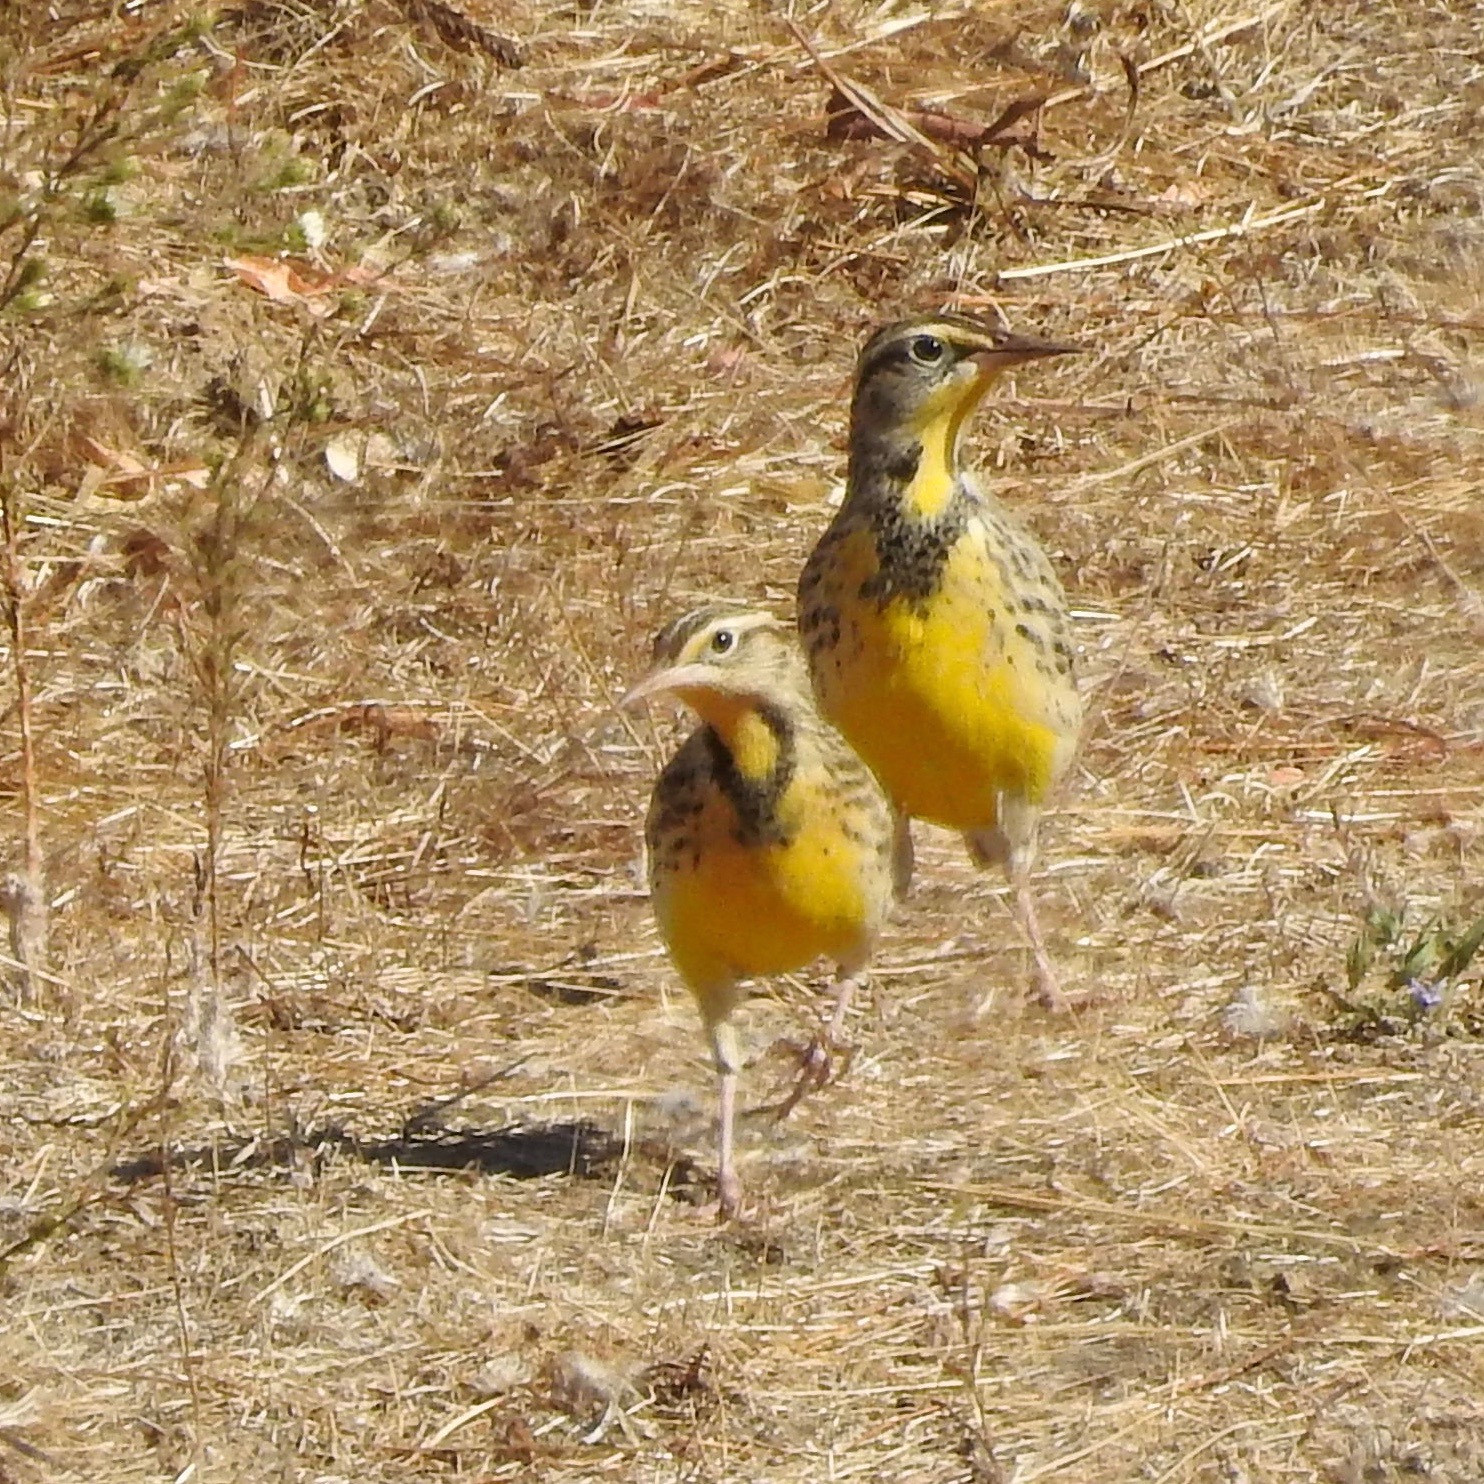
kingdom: Animalia
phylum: Chordata
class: Aves
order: Passeriformes
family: Icteridae
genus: Sturnella
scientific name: Sturnella neglecta
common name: Western meadowlark
